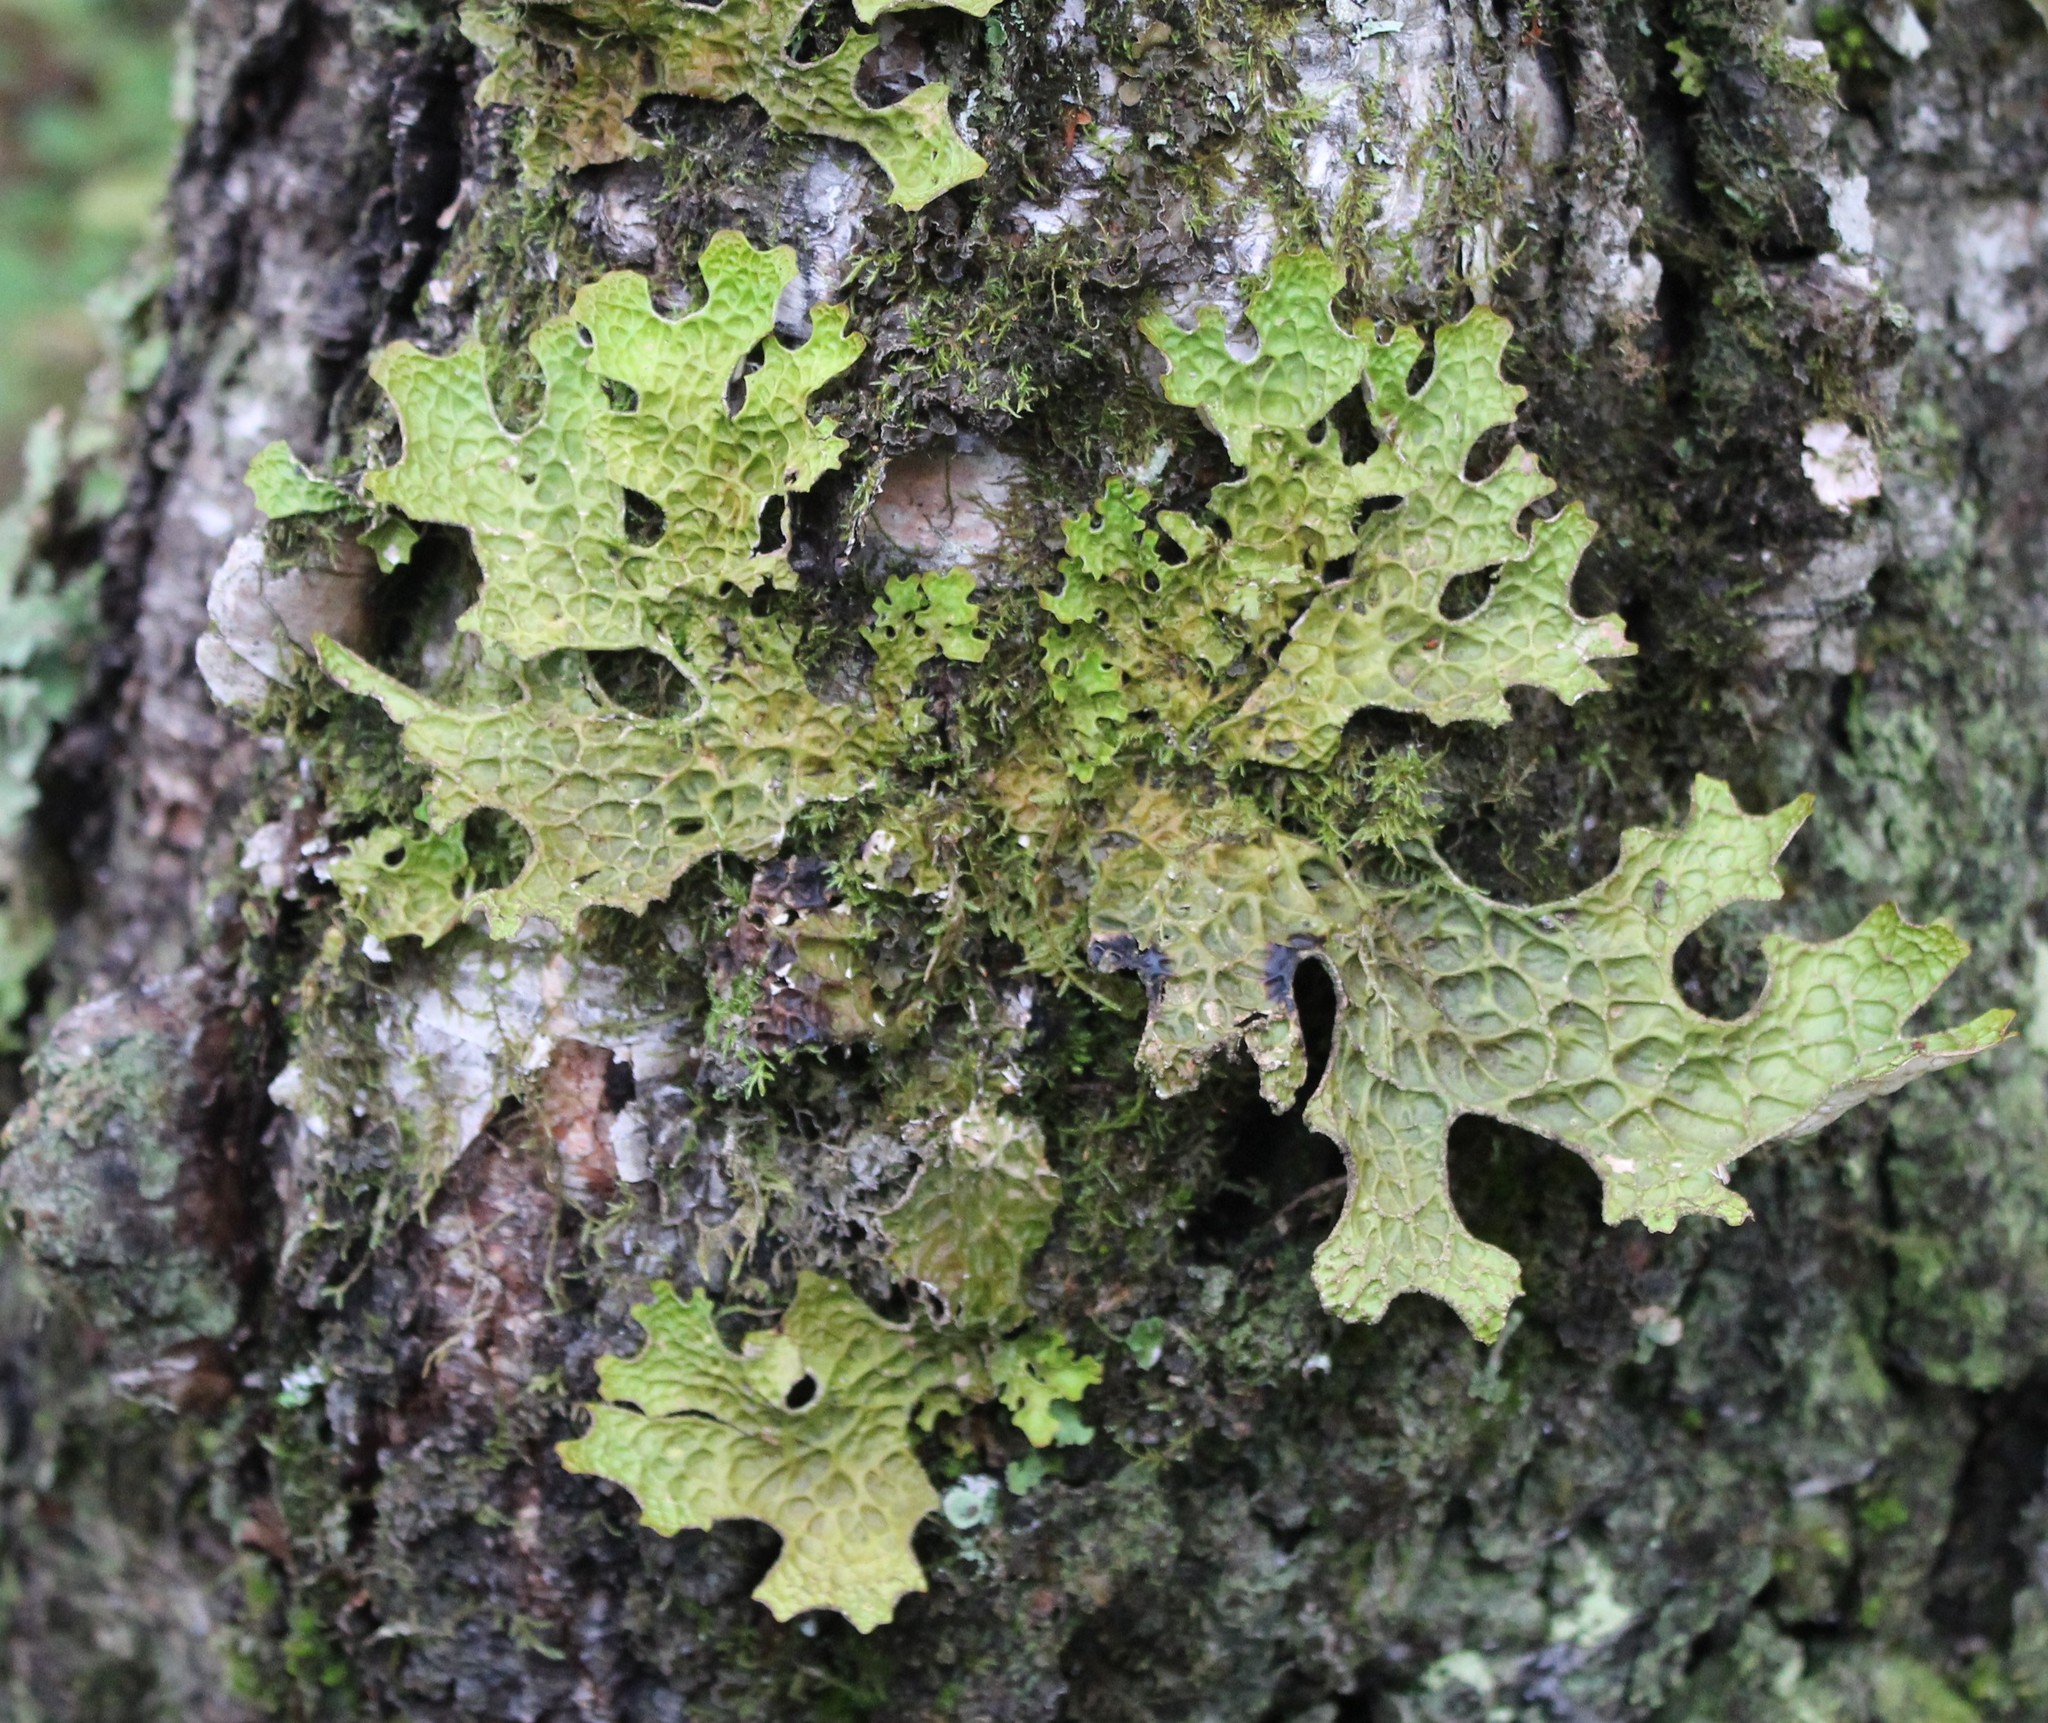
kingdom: Fungi
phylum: Ascomycota
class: Lecanoromycetes
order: Peltigerales
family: Lobariaceae
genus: Lobaria
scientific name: Lobaria pulmonaria
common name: Lungwort
